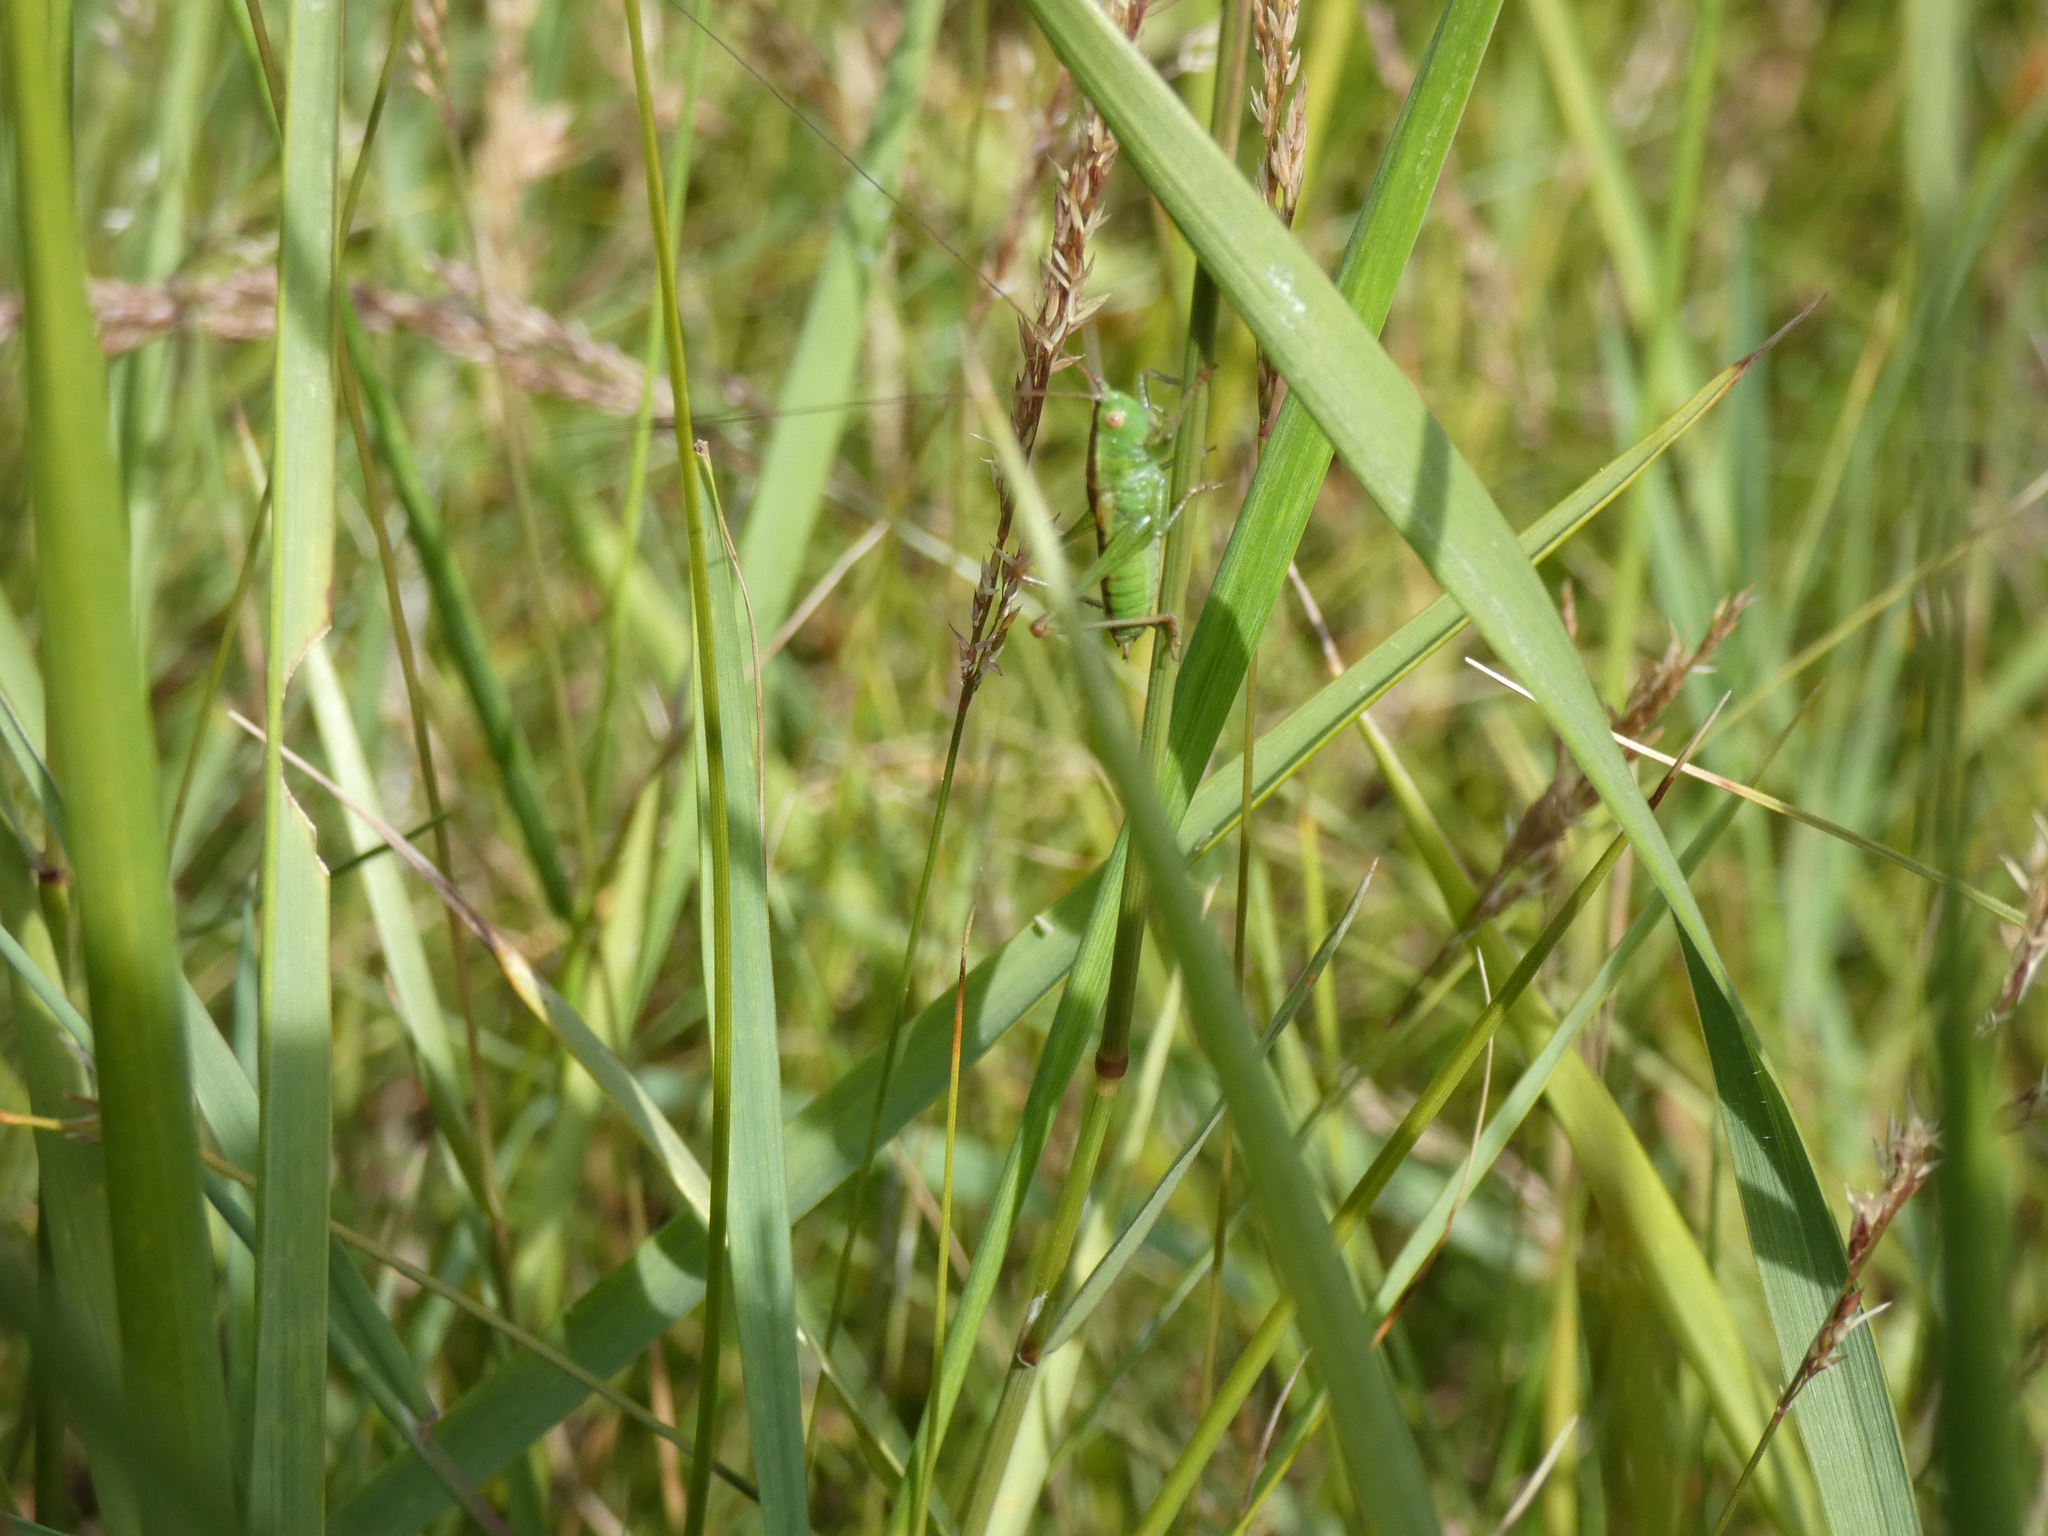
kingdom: Animalia
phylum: Arthropoda
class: Insecta
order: Orthoptera
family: Tettigoniidae
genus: Conocephalus
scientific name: Conocephalus dorsalis
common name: Short-winged conehead
